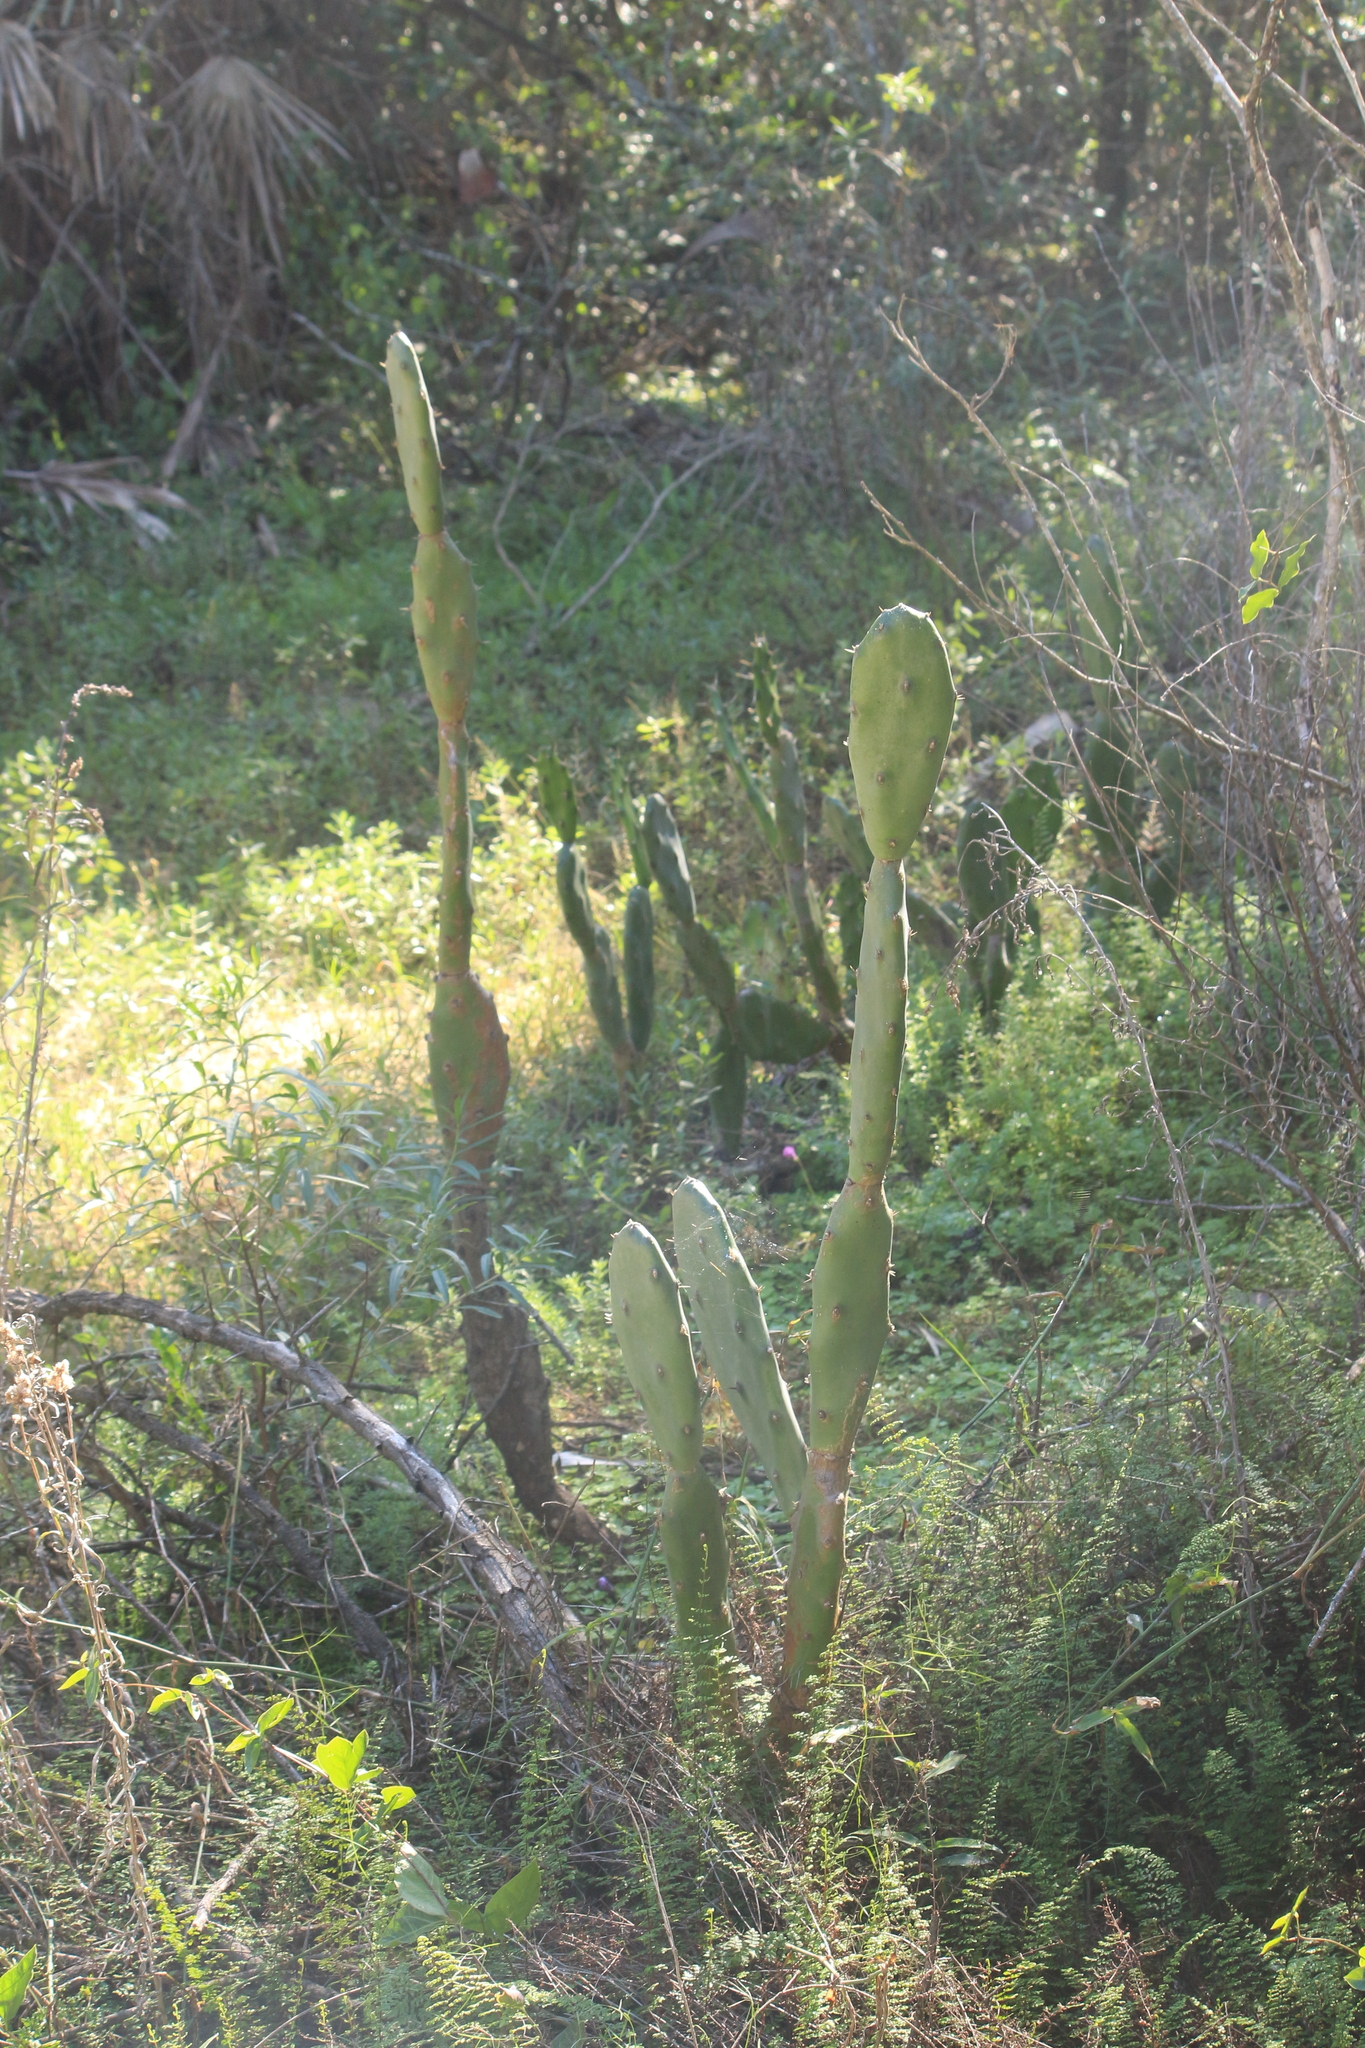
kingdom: Plantae
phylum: Tracheophyta
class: Magnoliopsida
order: Caryophyllales
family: Cactaceae
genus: Opuntia
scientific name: Opuntia elata
